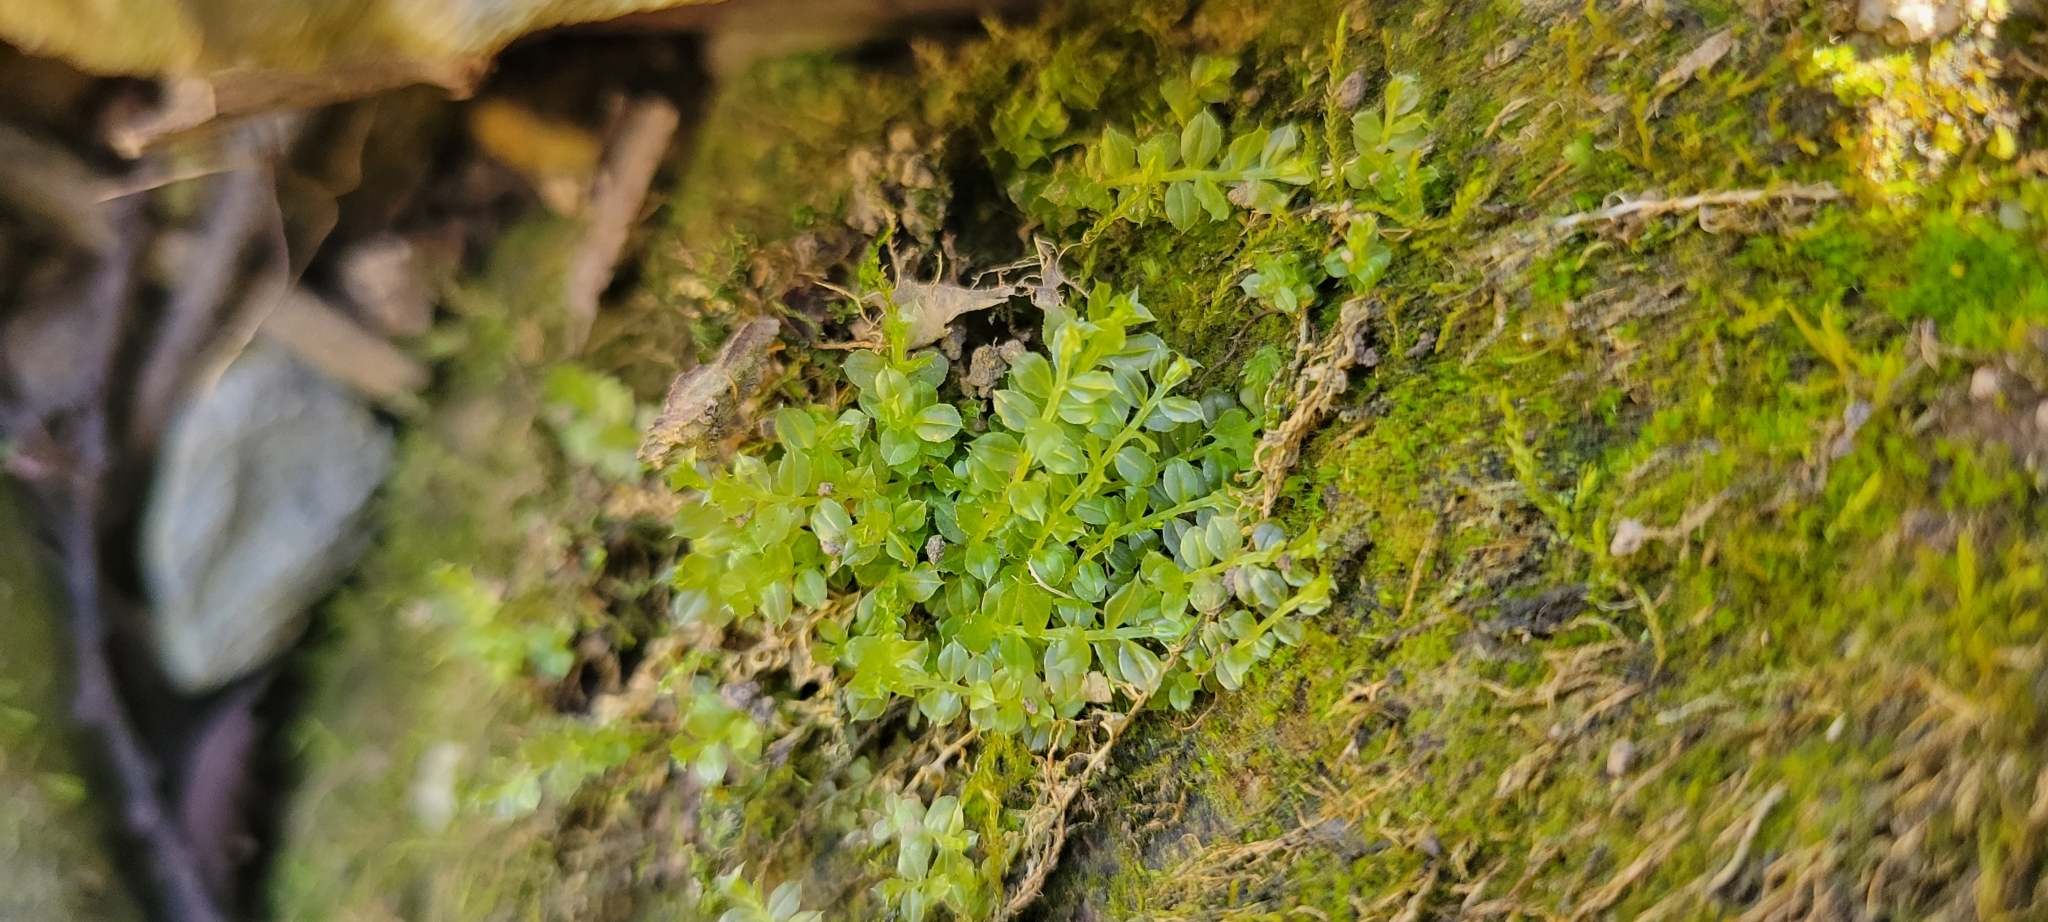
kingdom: Plantae
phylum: Bryophyta
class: Bryopsida
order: Bryales
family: Mniaceae
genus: Plagiomnium
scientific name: Plagiomnium cuspidatum
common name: Woodsy leafy moss
